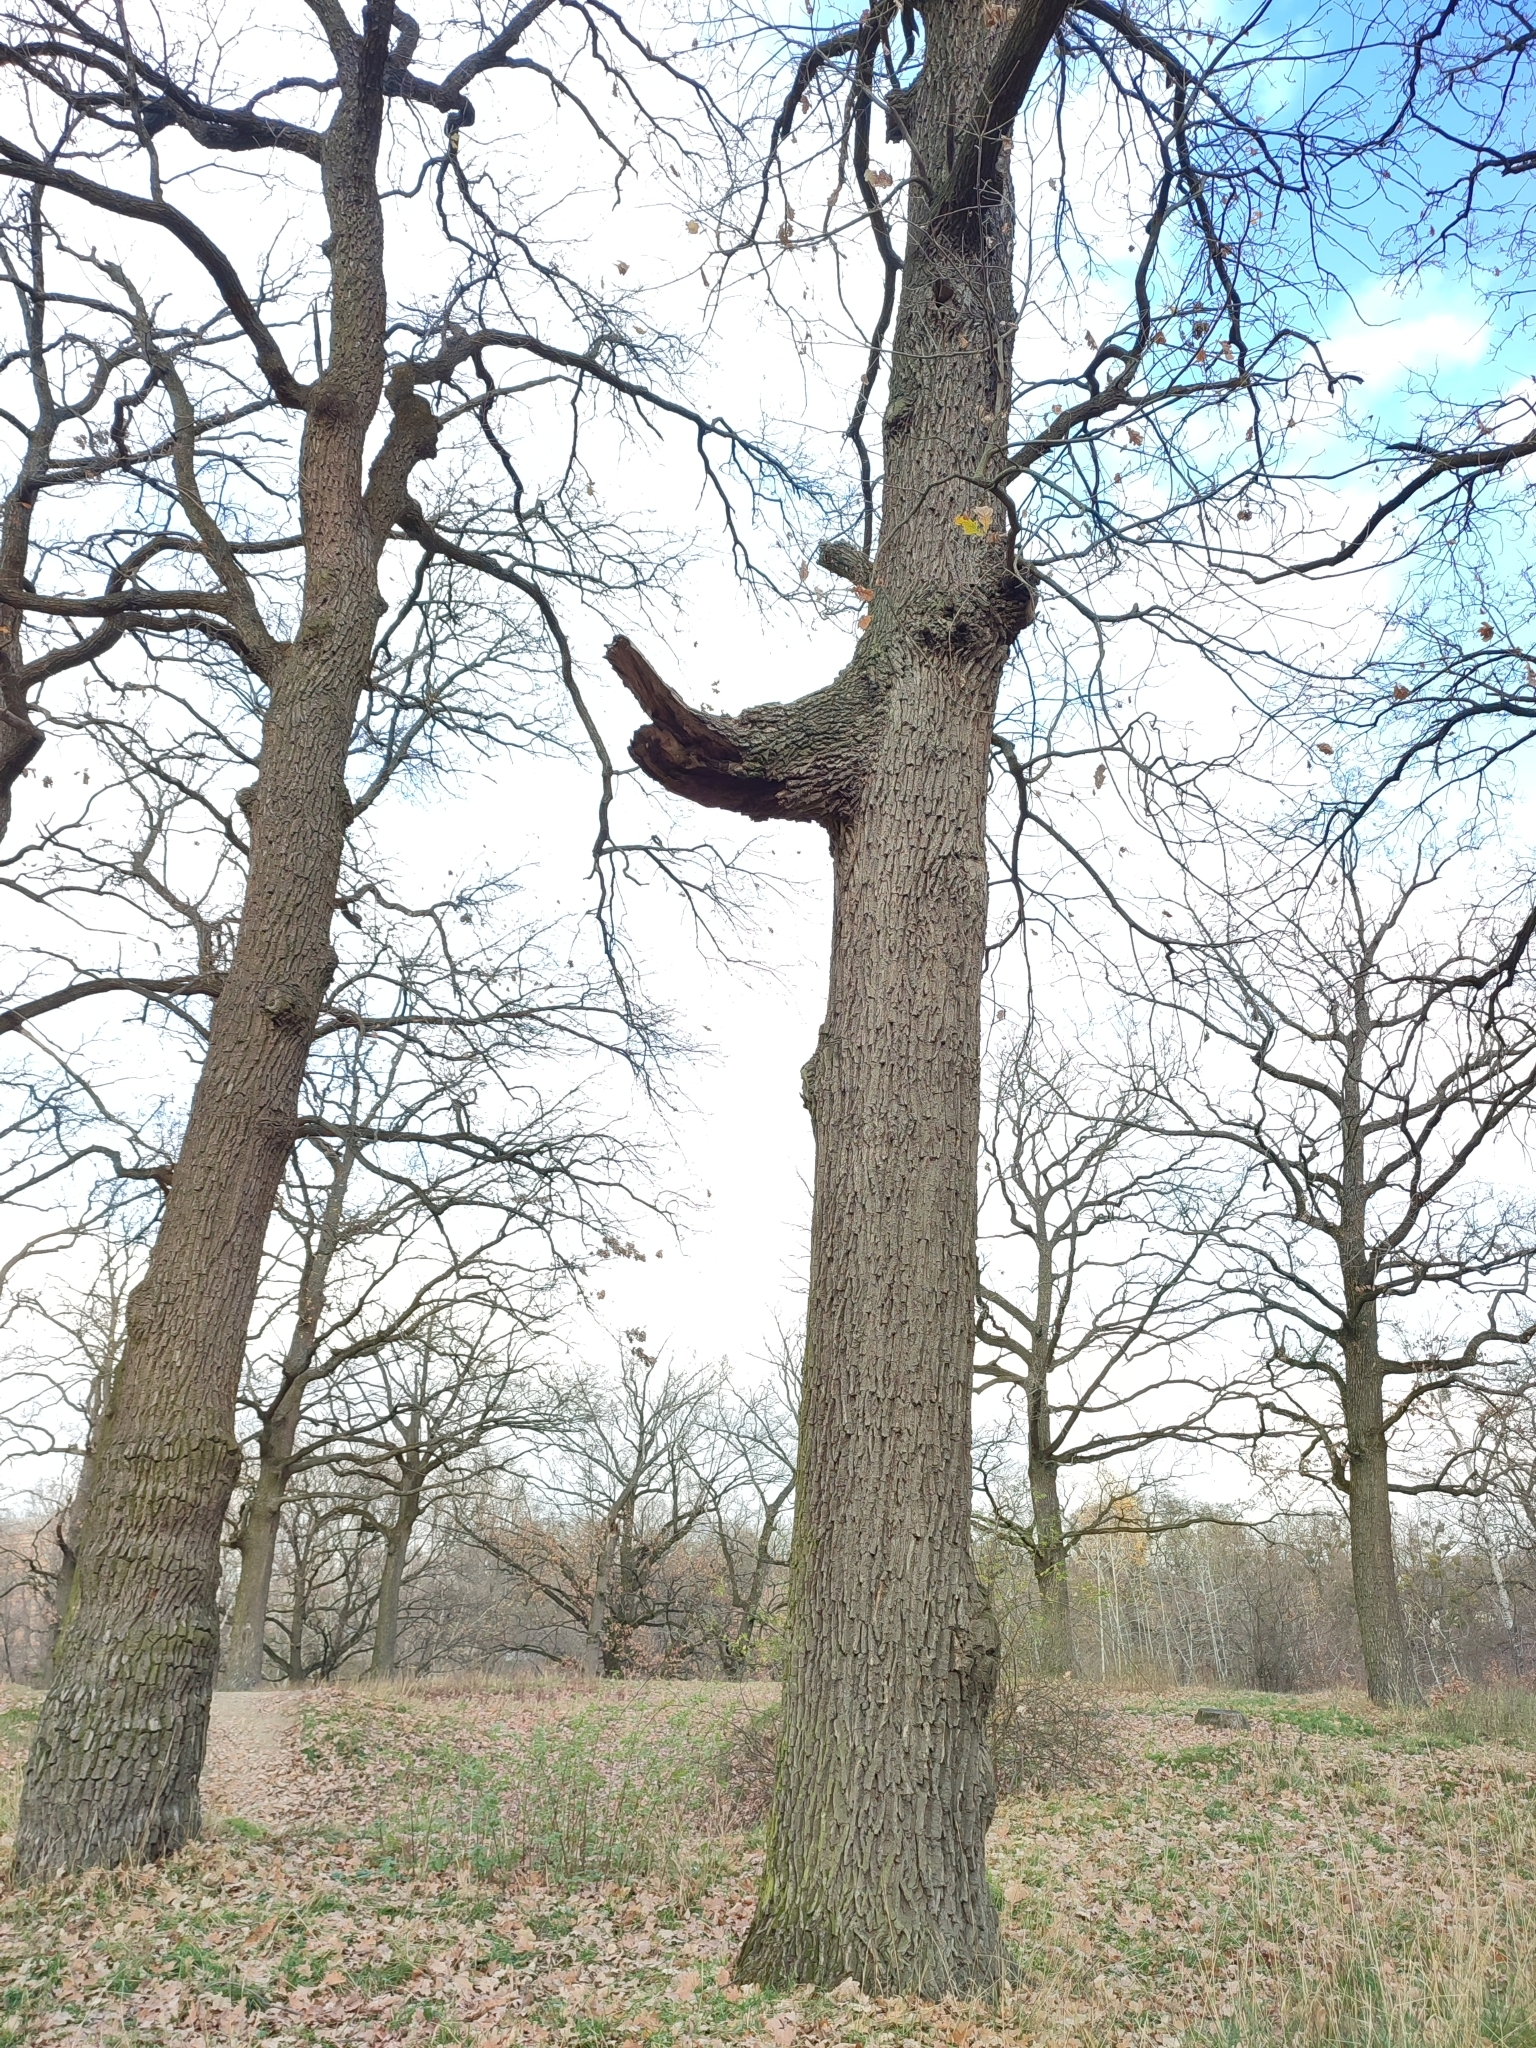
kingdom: Plantae
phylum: Tracheophyta
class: Magnoliopsida
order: Fagales
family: Fagaceae
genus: Quercus
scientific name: Quercus robur
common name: Pedunculate oak
